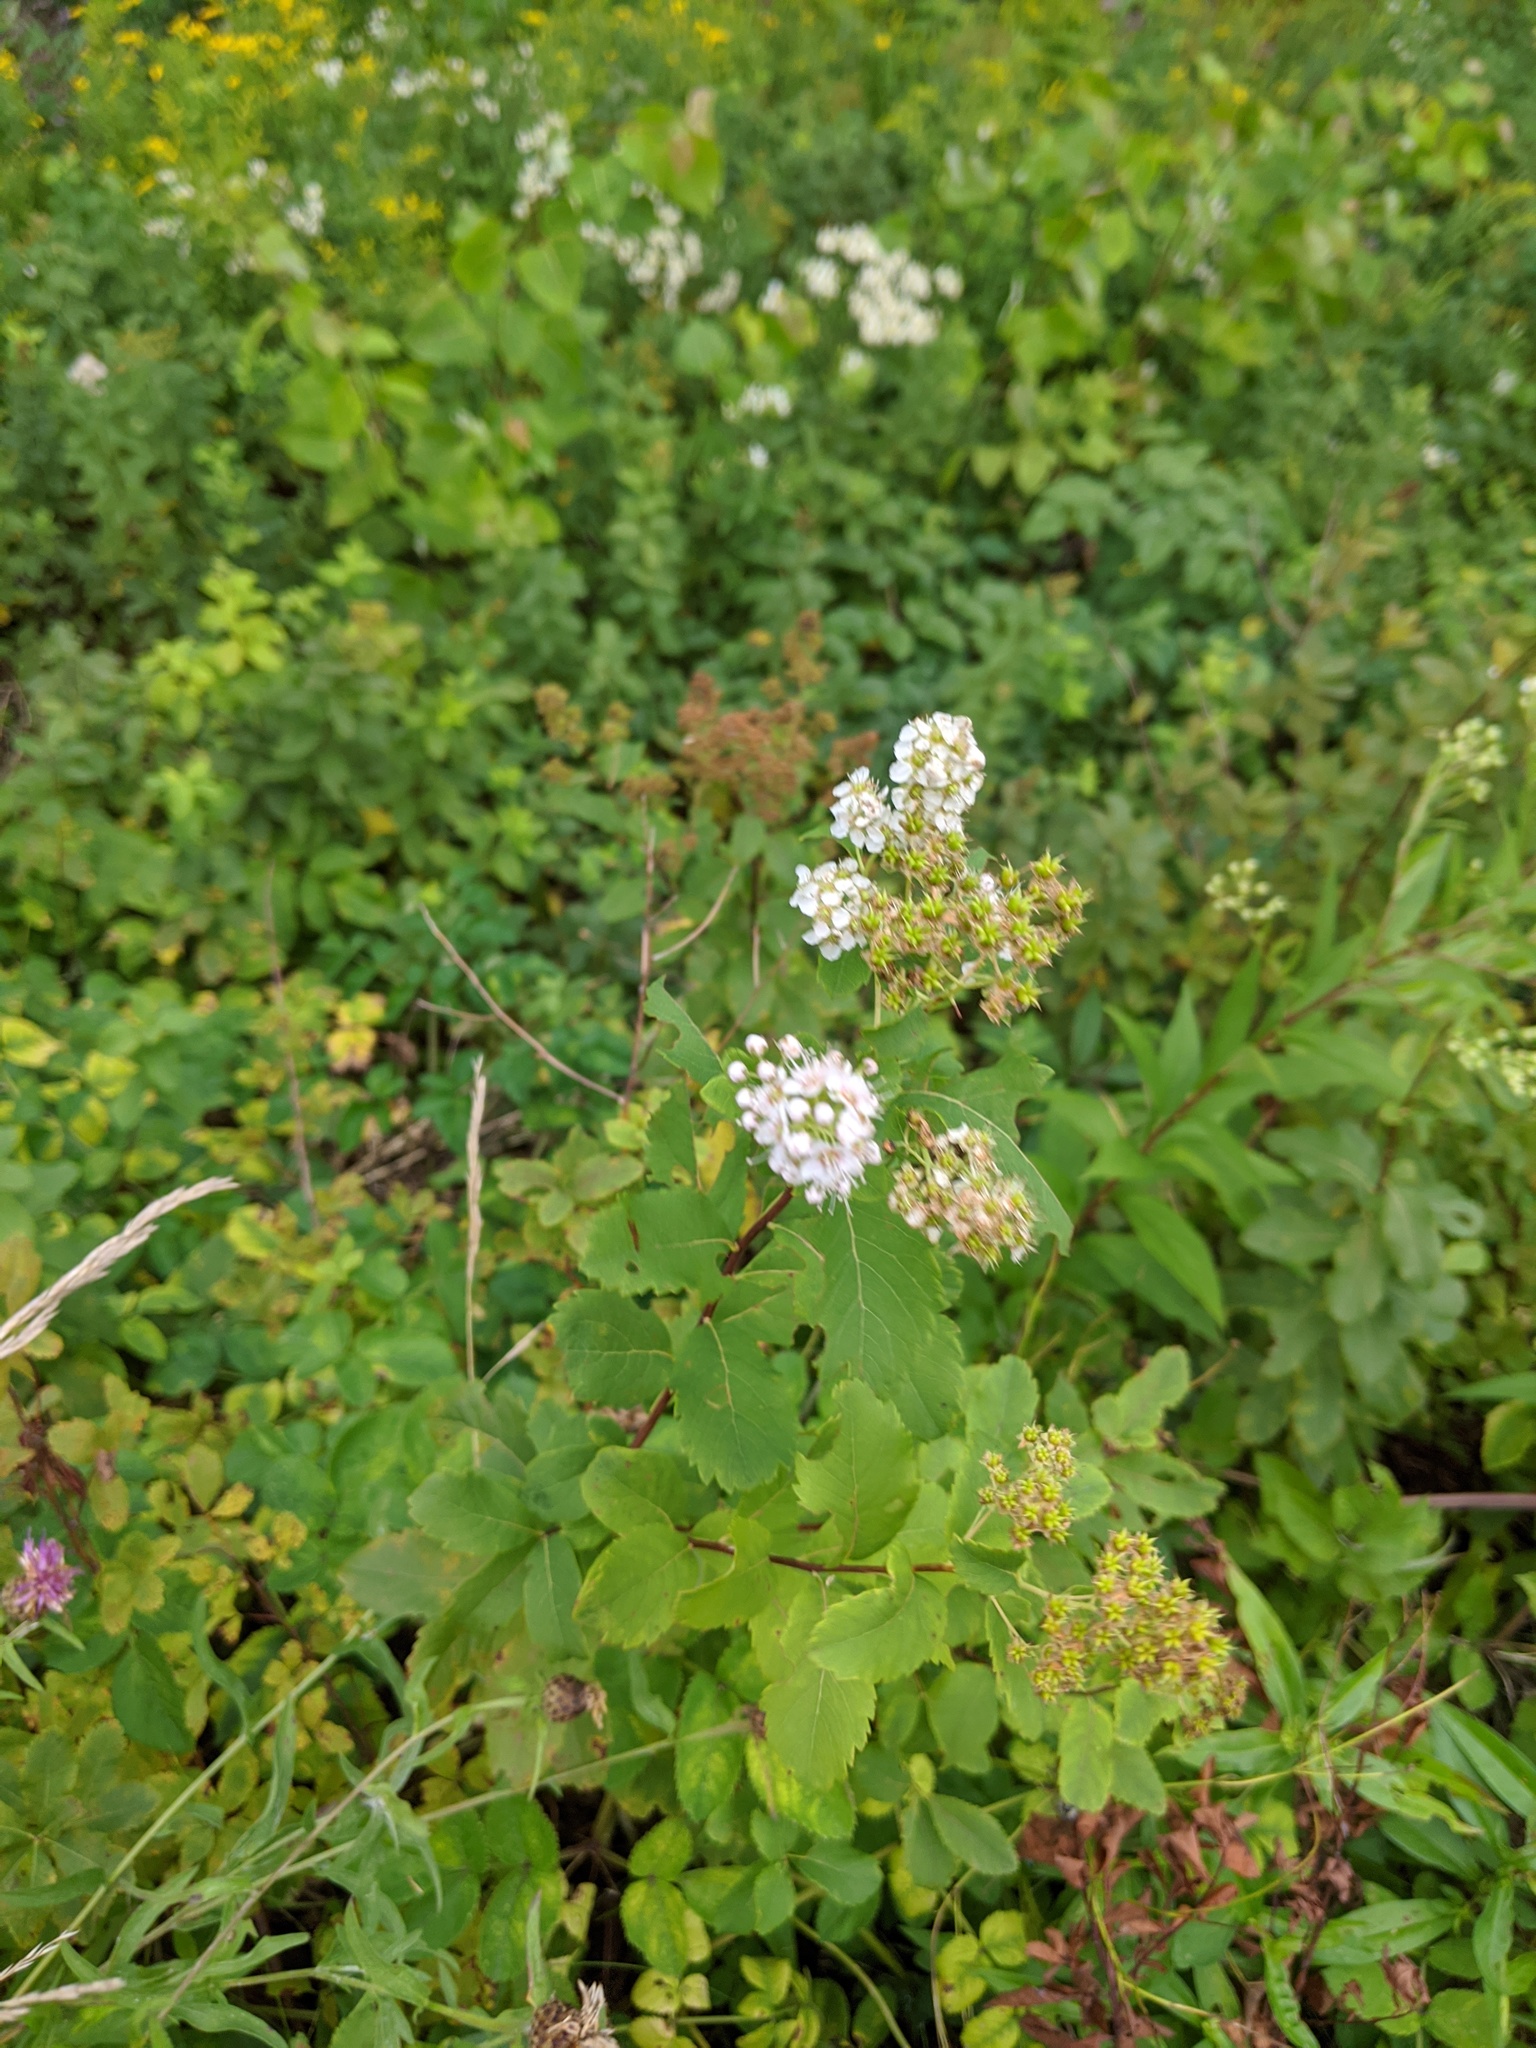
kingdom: Plantae
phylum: Tracheophyta
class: Magnoliopsida
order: Rosales
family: Rosaceae
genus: Spiraea
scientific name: Spiraea alba
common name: Pale bridewort
